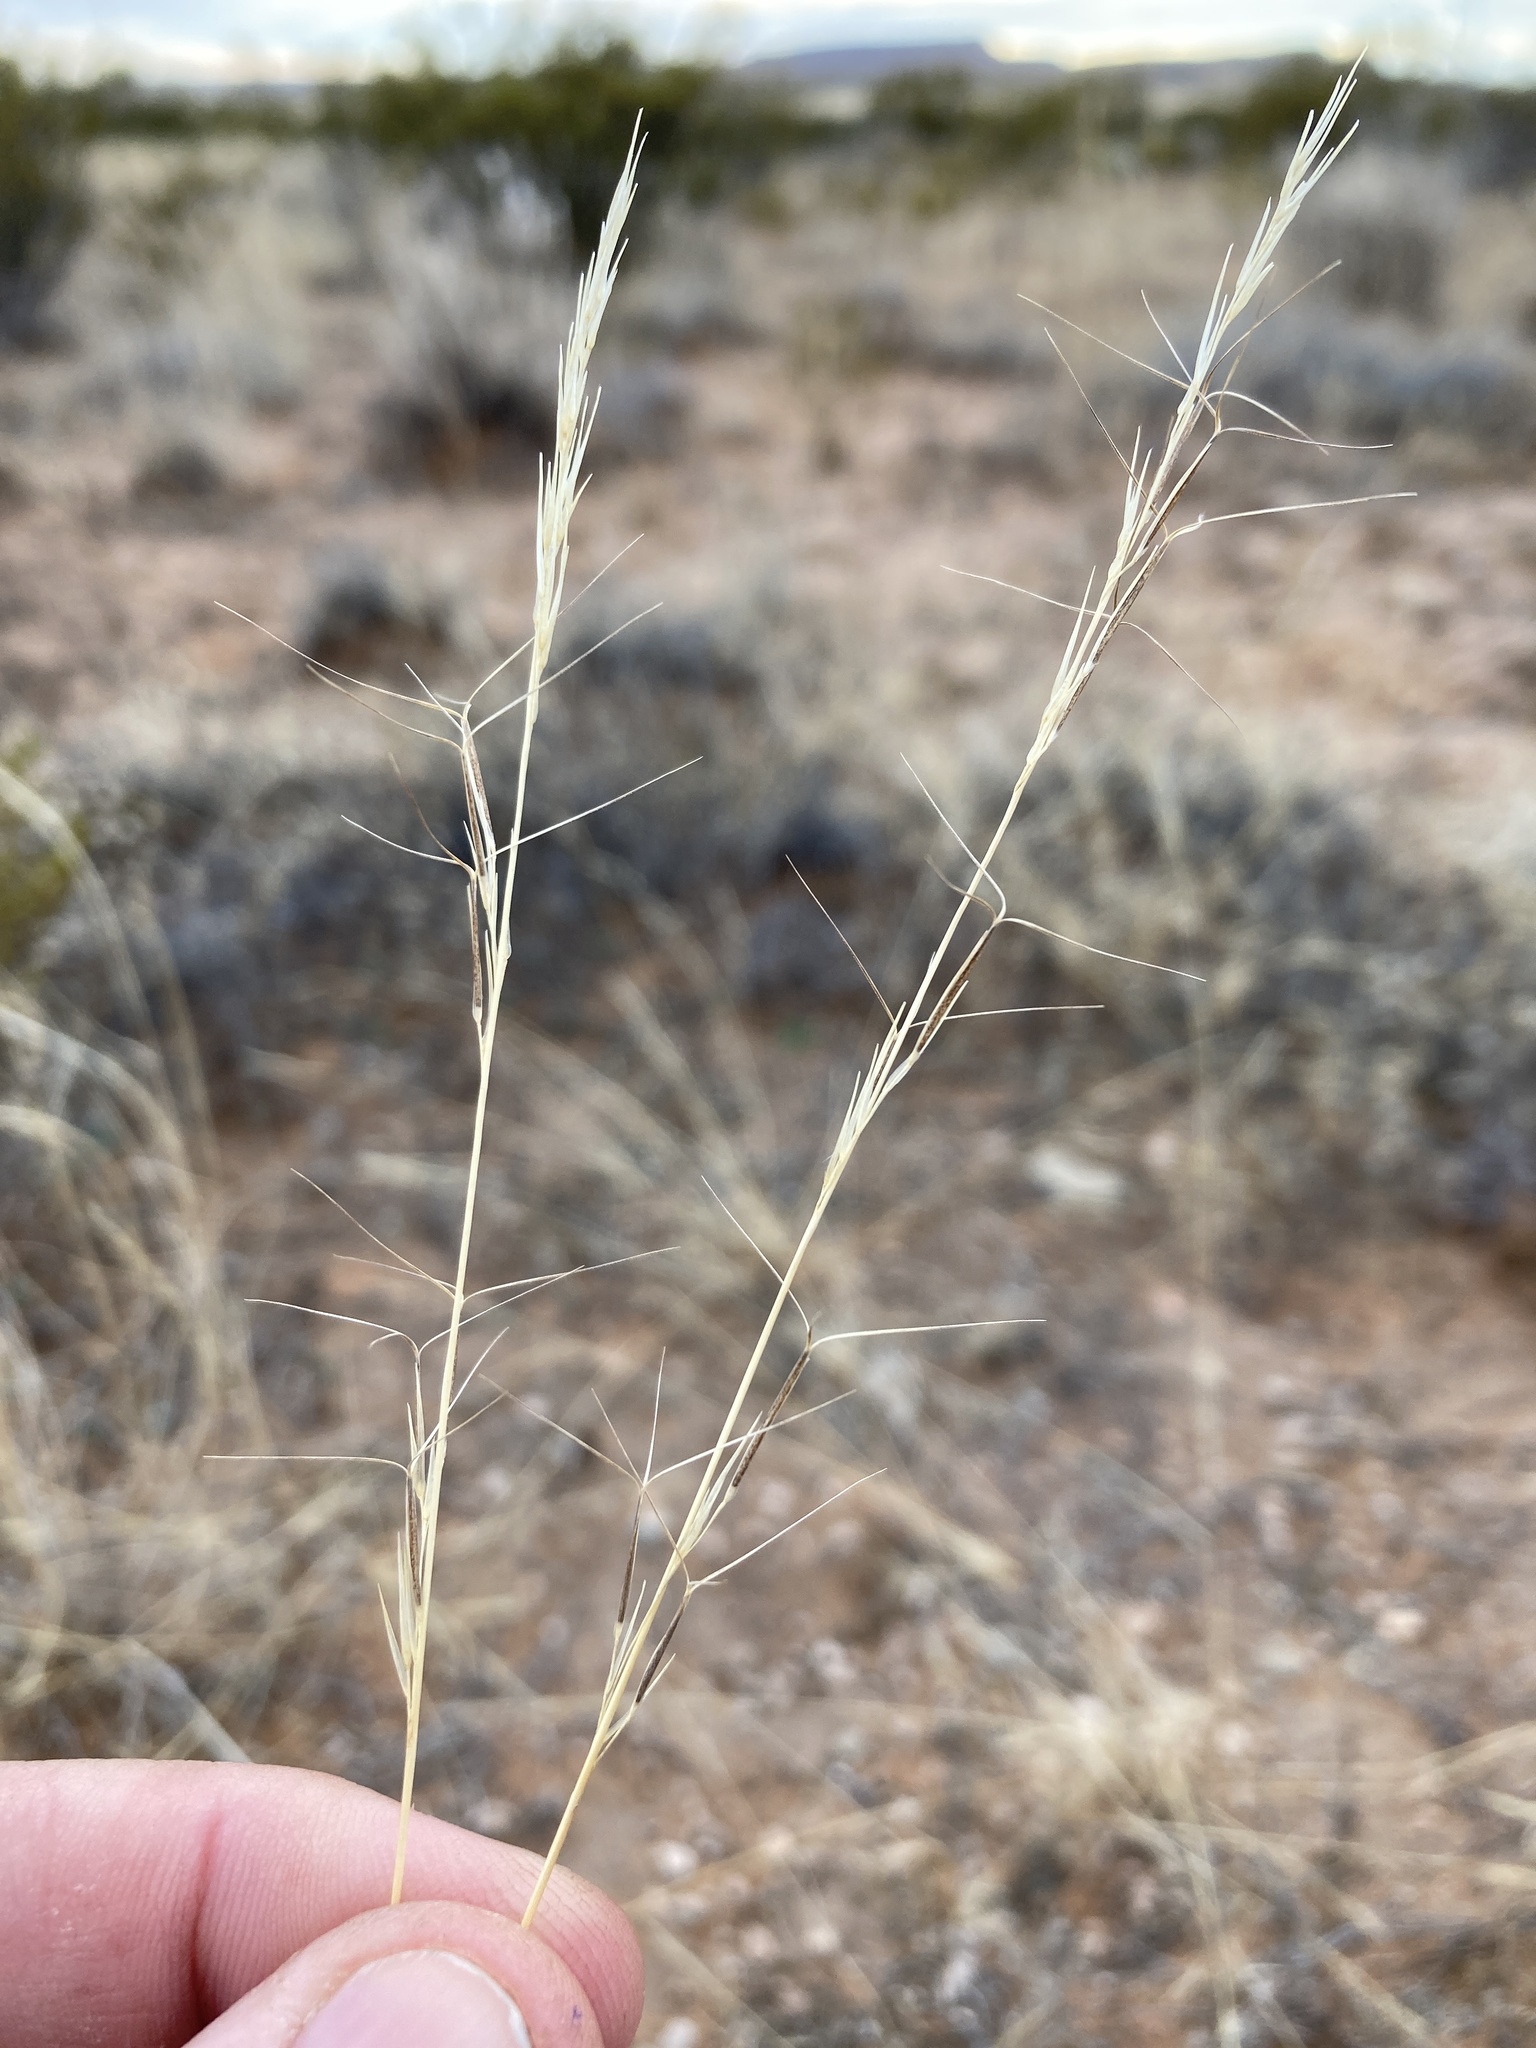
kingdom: Plantae
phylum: Tracheophyta
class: Liliopsida
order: Poales
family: Poaceae
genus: Aristida
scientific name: Aristida adscensionis
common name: Sixweeks threeawn
